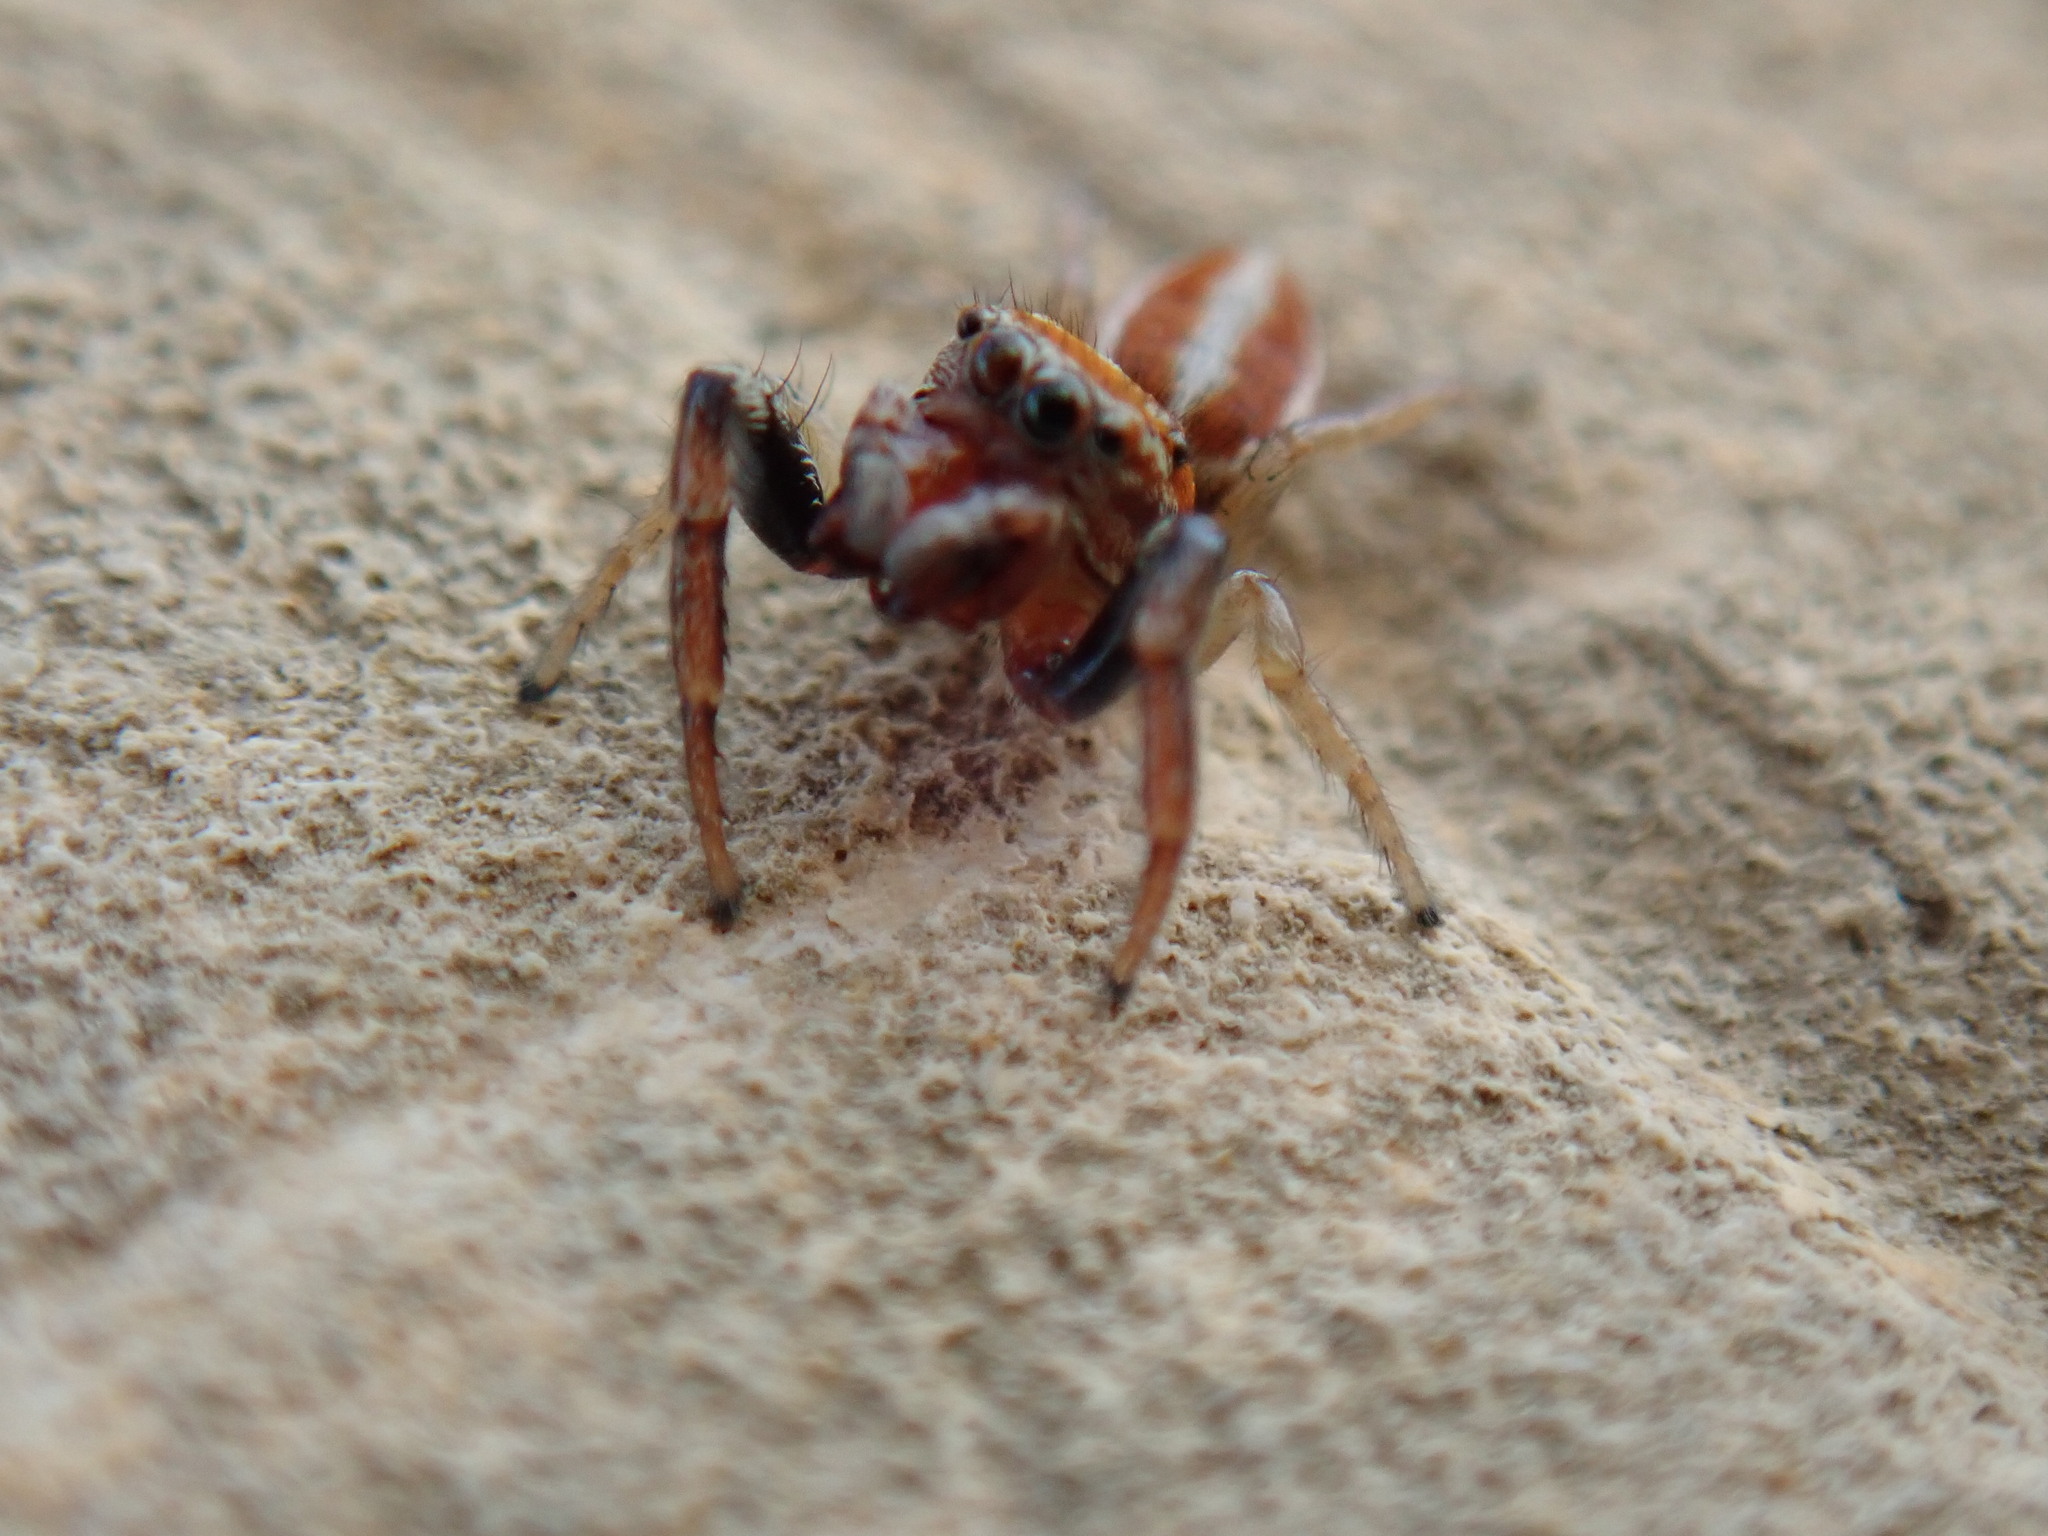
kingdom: Animalia
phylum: Arthropoda
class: Arachnida
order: Araneae
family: Salticidae
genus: Icius
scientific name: Icius hamatus
